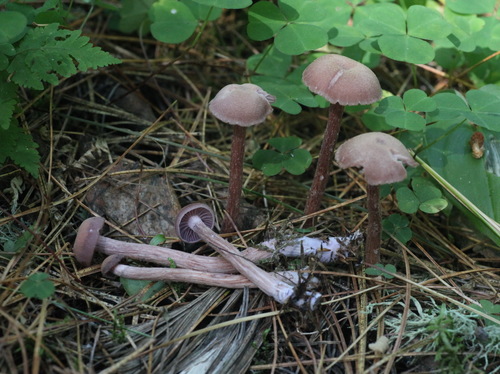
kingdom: Fungi
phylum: Basidiomycota
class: Agaricomycetes
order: Agaricales
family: Hydnangiaceae
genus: Laccaria
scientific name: Laccaria bicolor
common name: Bicoloured deceiver
